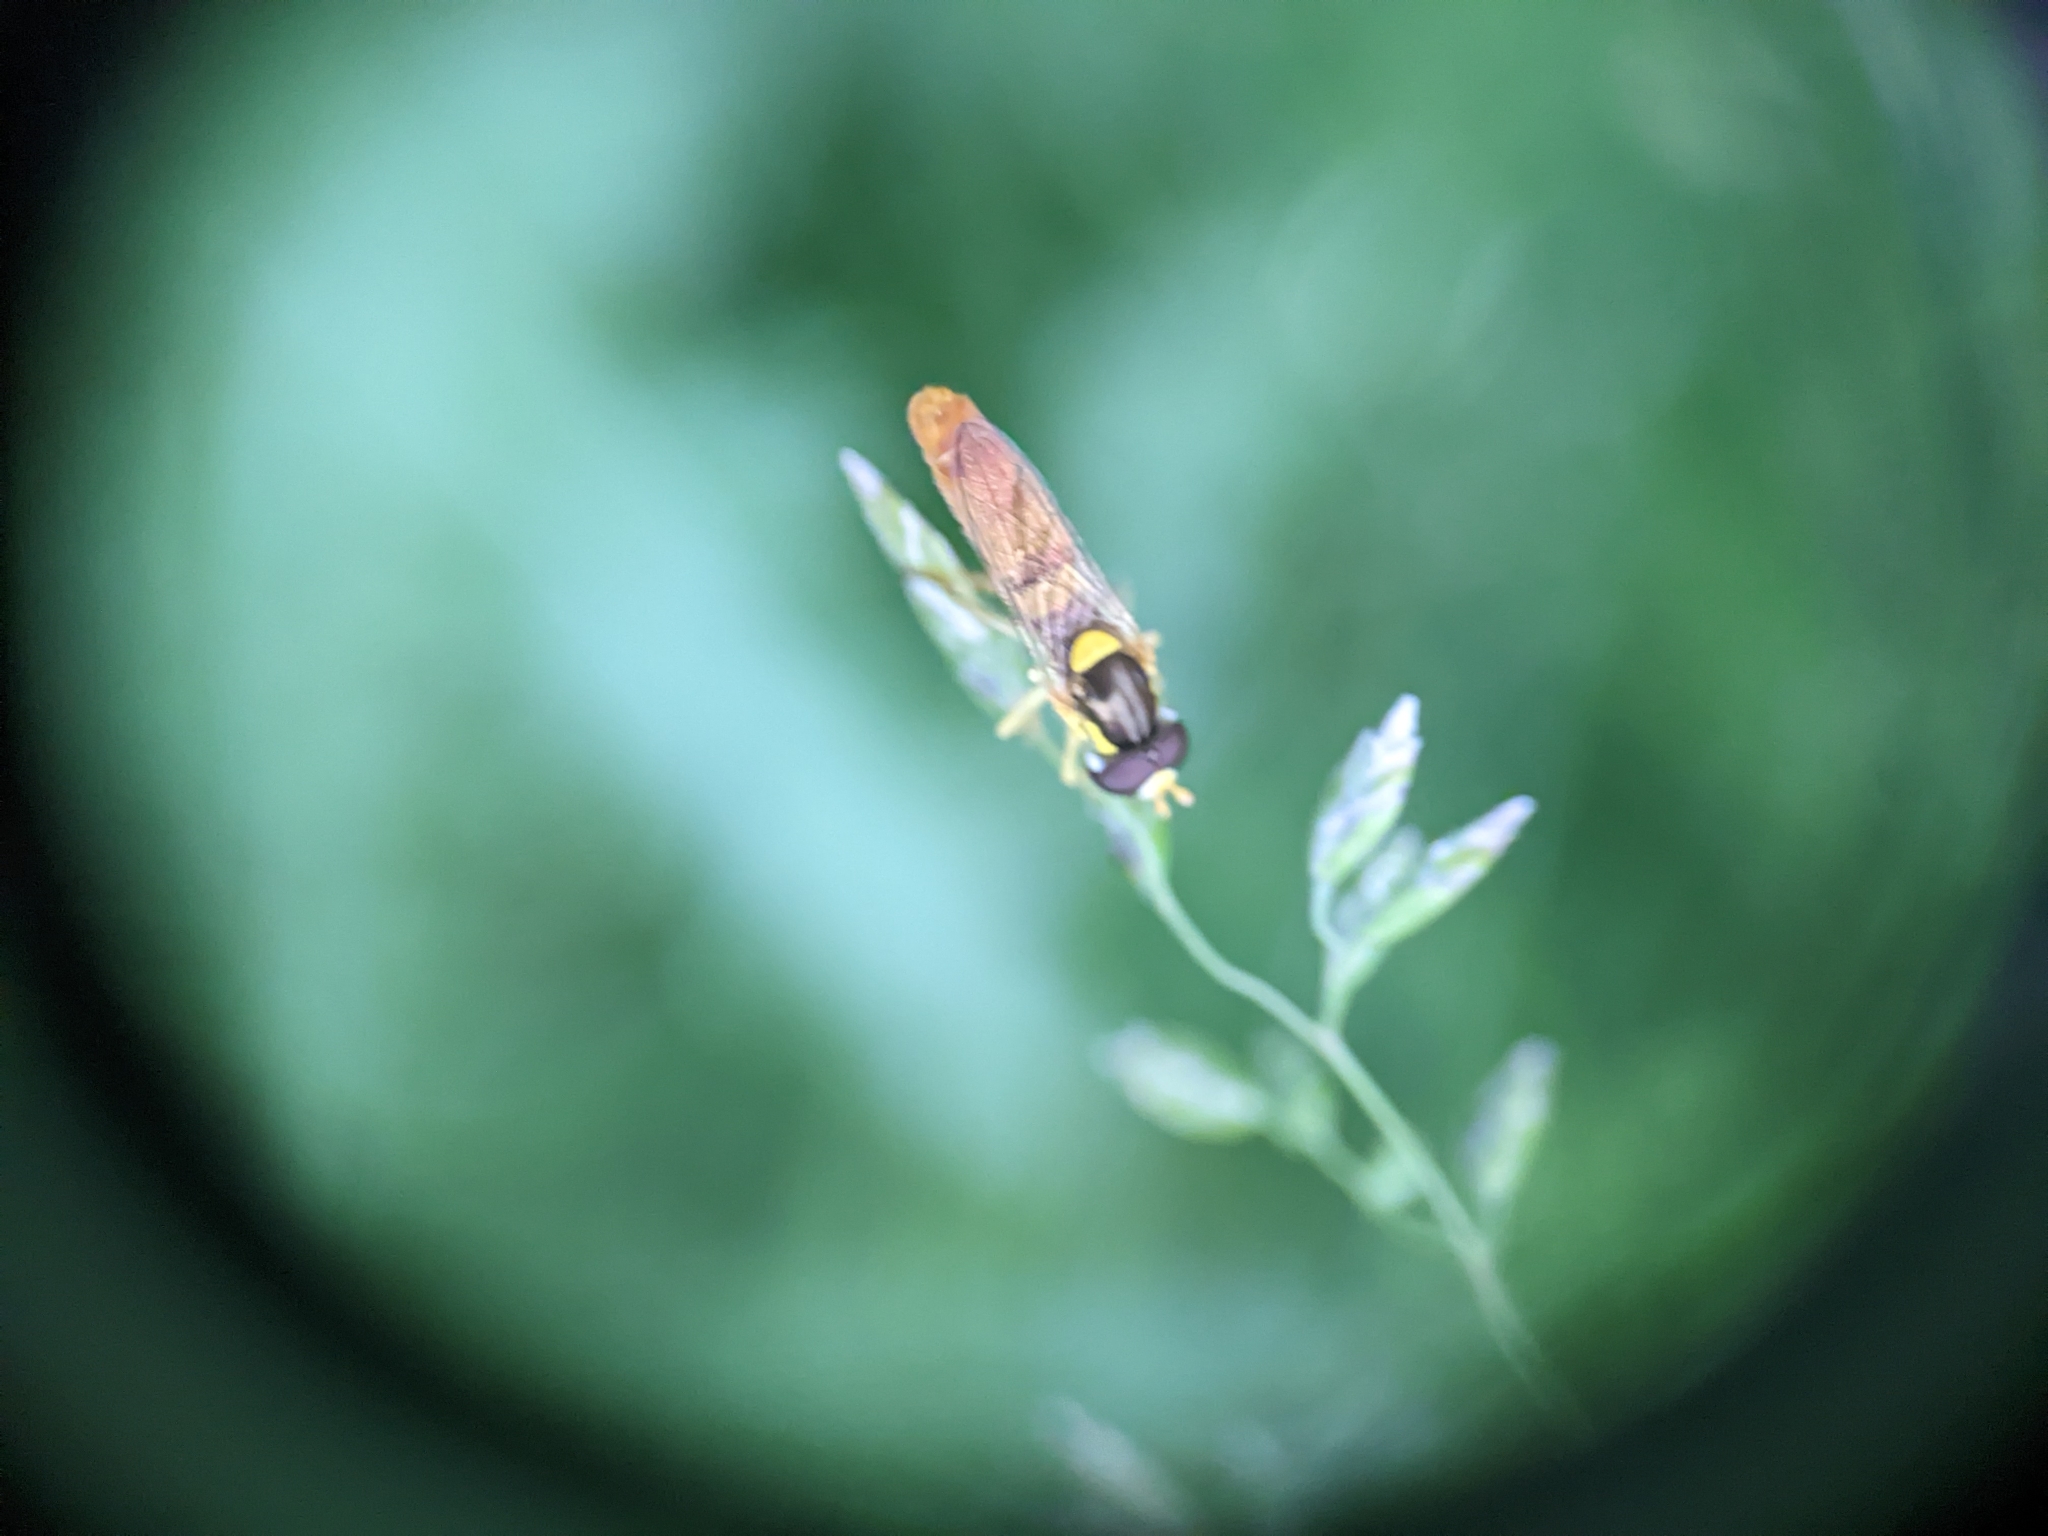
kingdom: Animalia
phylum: Arthropoda
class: Insecta
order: Diptera
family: Syrphidae
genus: Sphaerophoria
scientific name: Sphaerophoria contigua
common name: Tufted globetail
